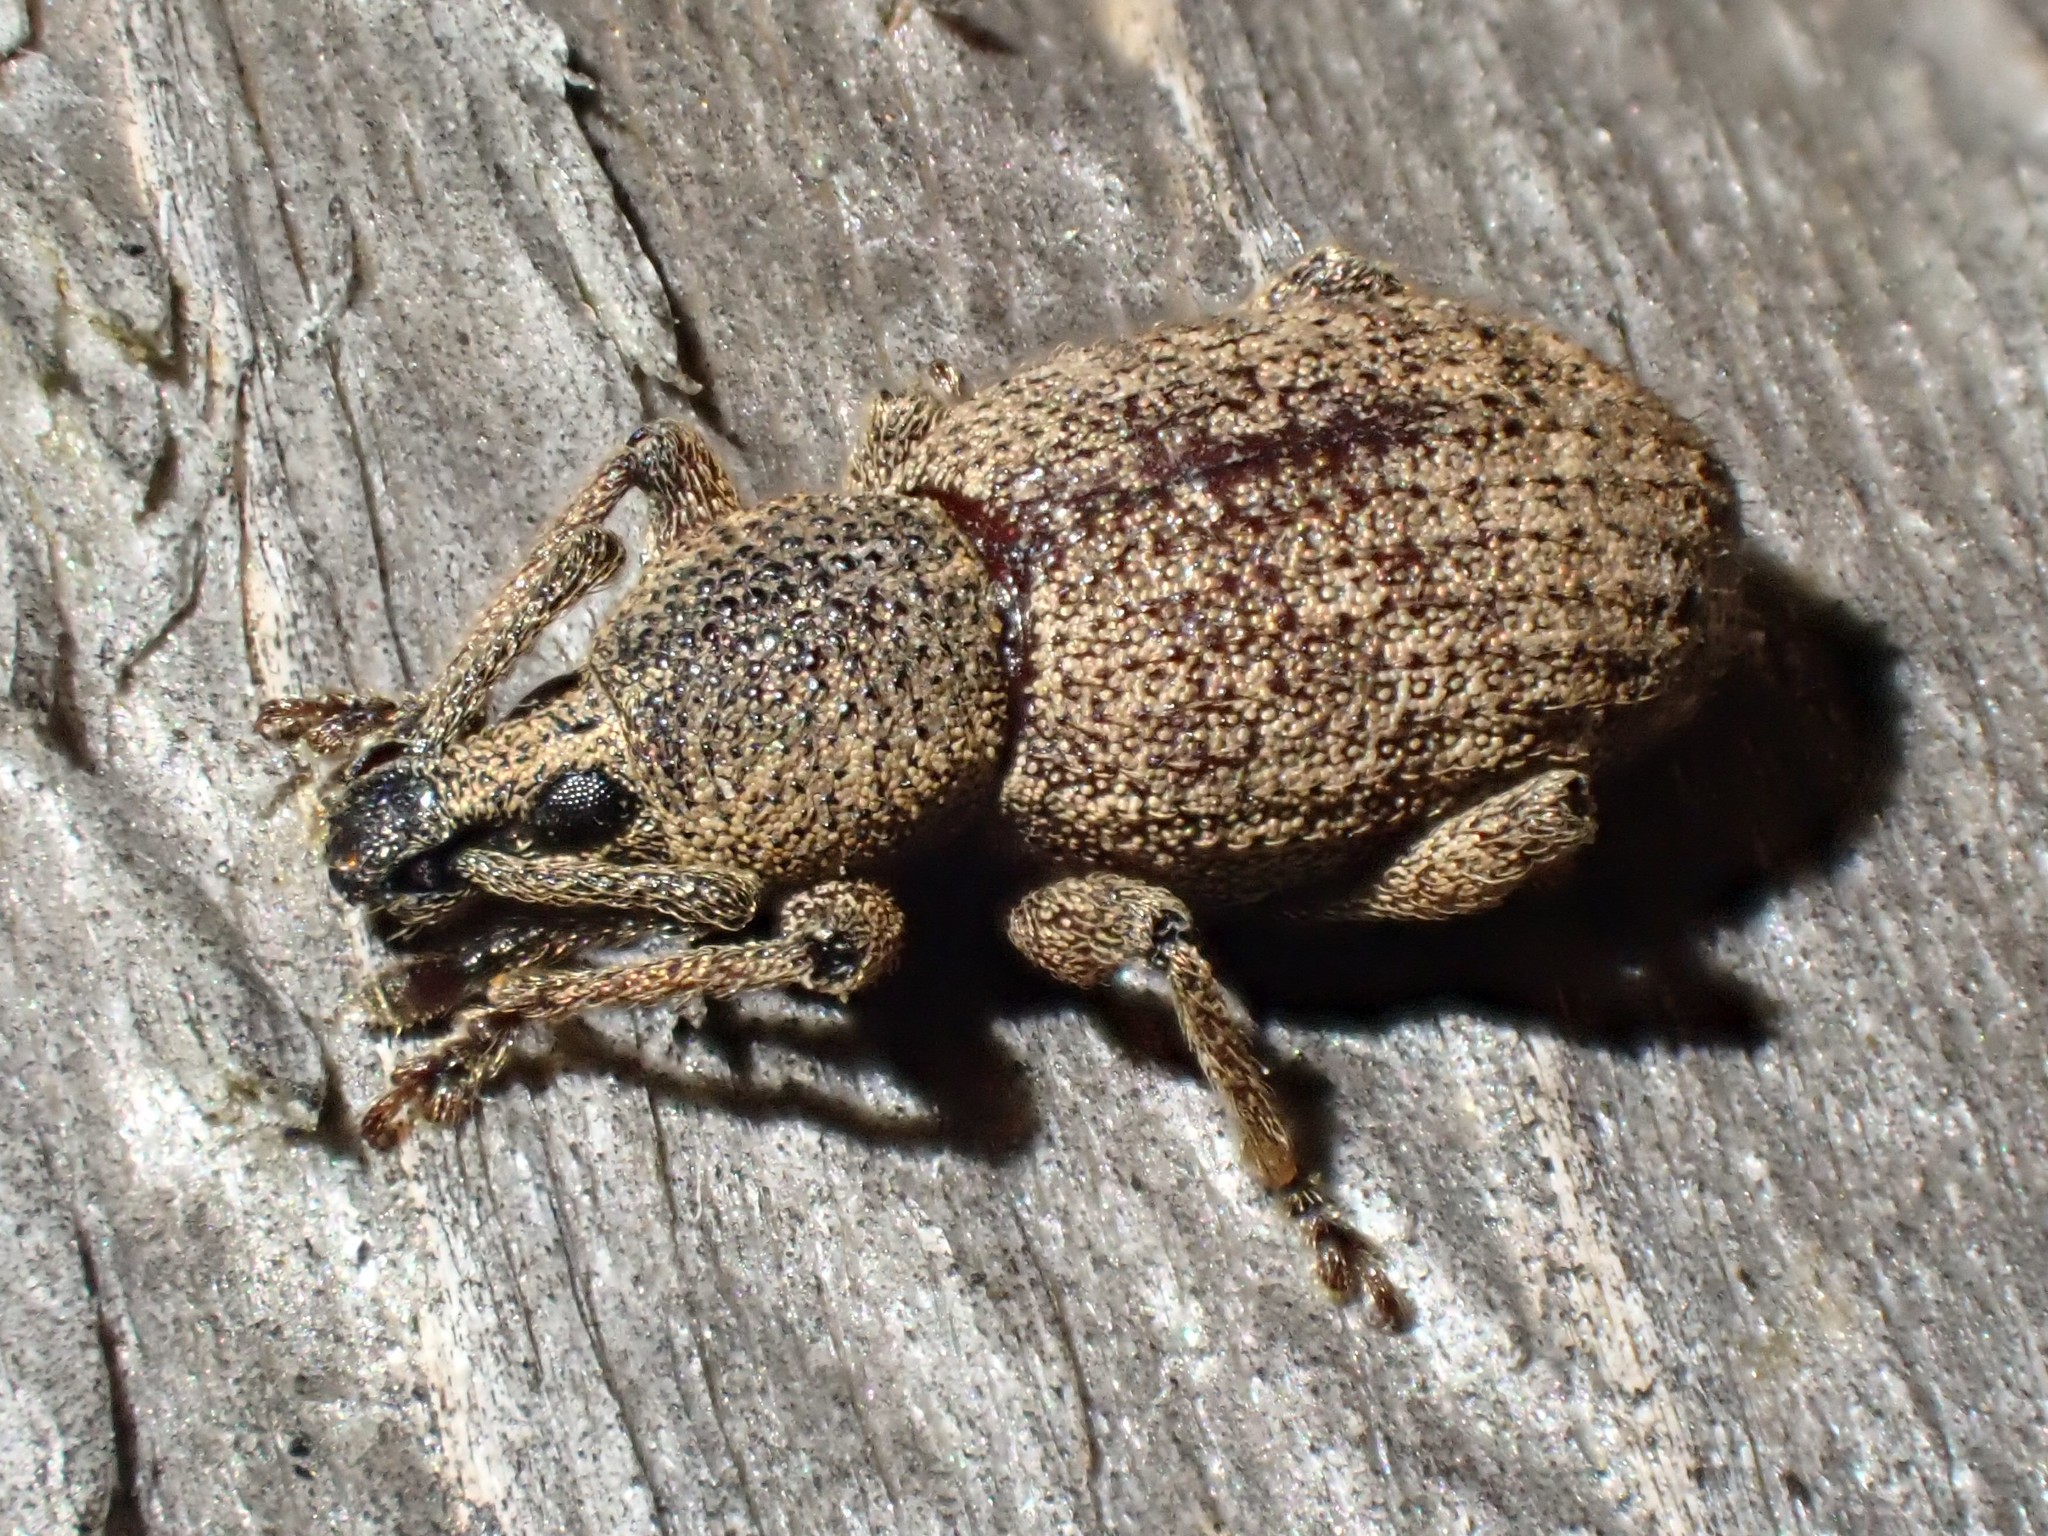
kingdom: Animalia
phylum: Arthropoda
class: Insecta
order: Coleoptera
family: Curculionidae
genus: Otiorhynchus
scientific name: Otiorhynchus singularis
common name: Clay-coloured weevil
